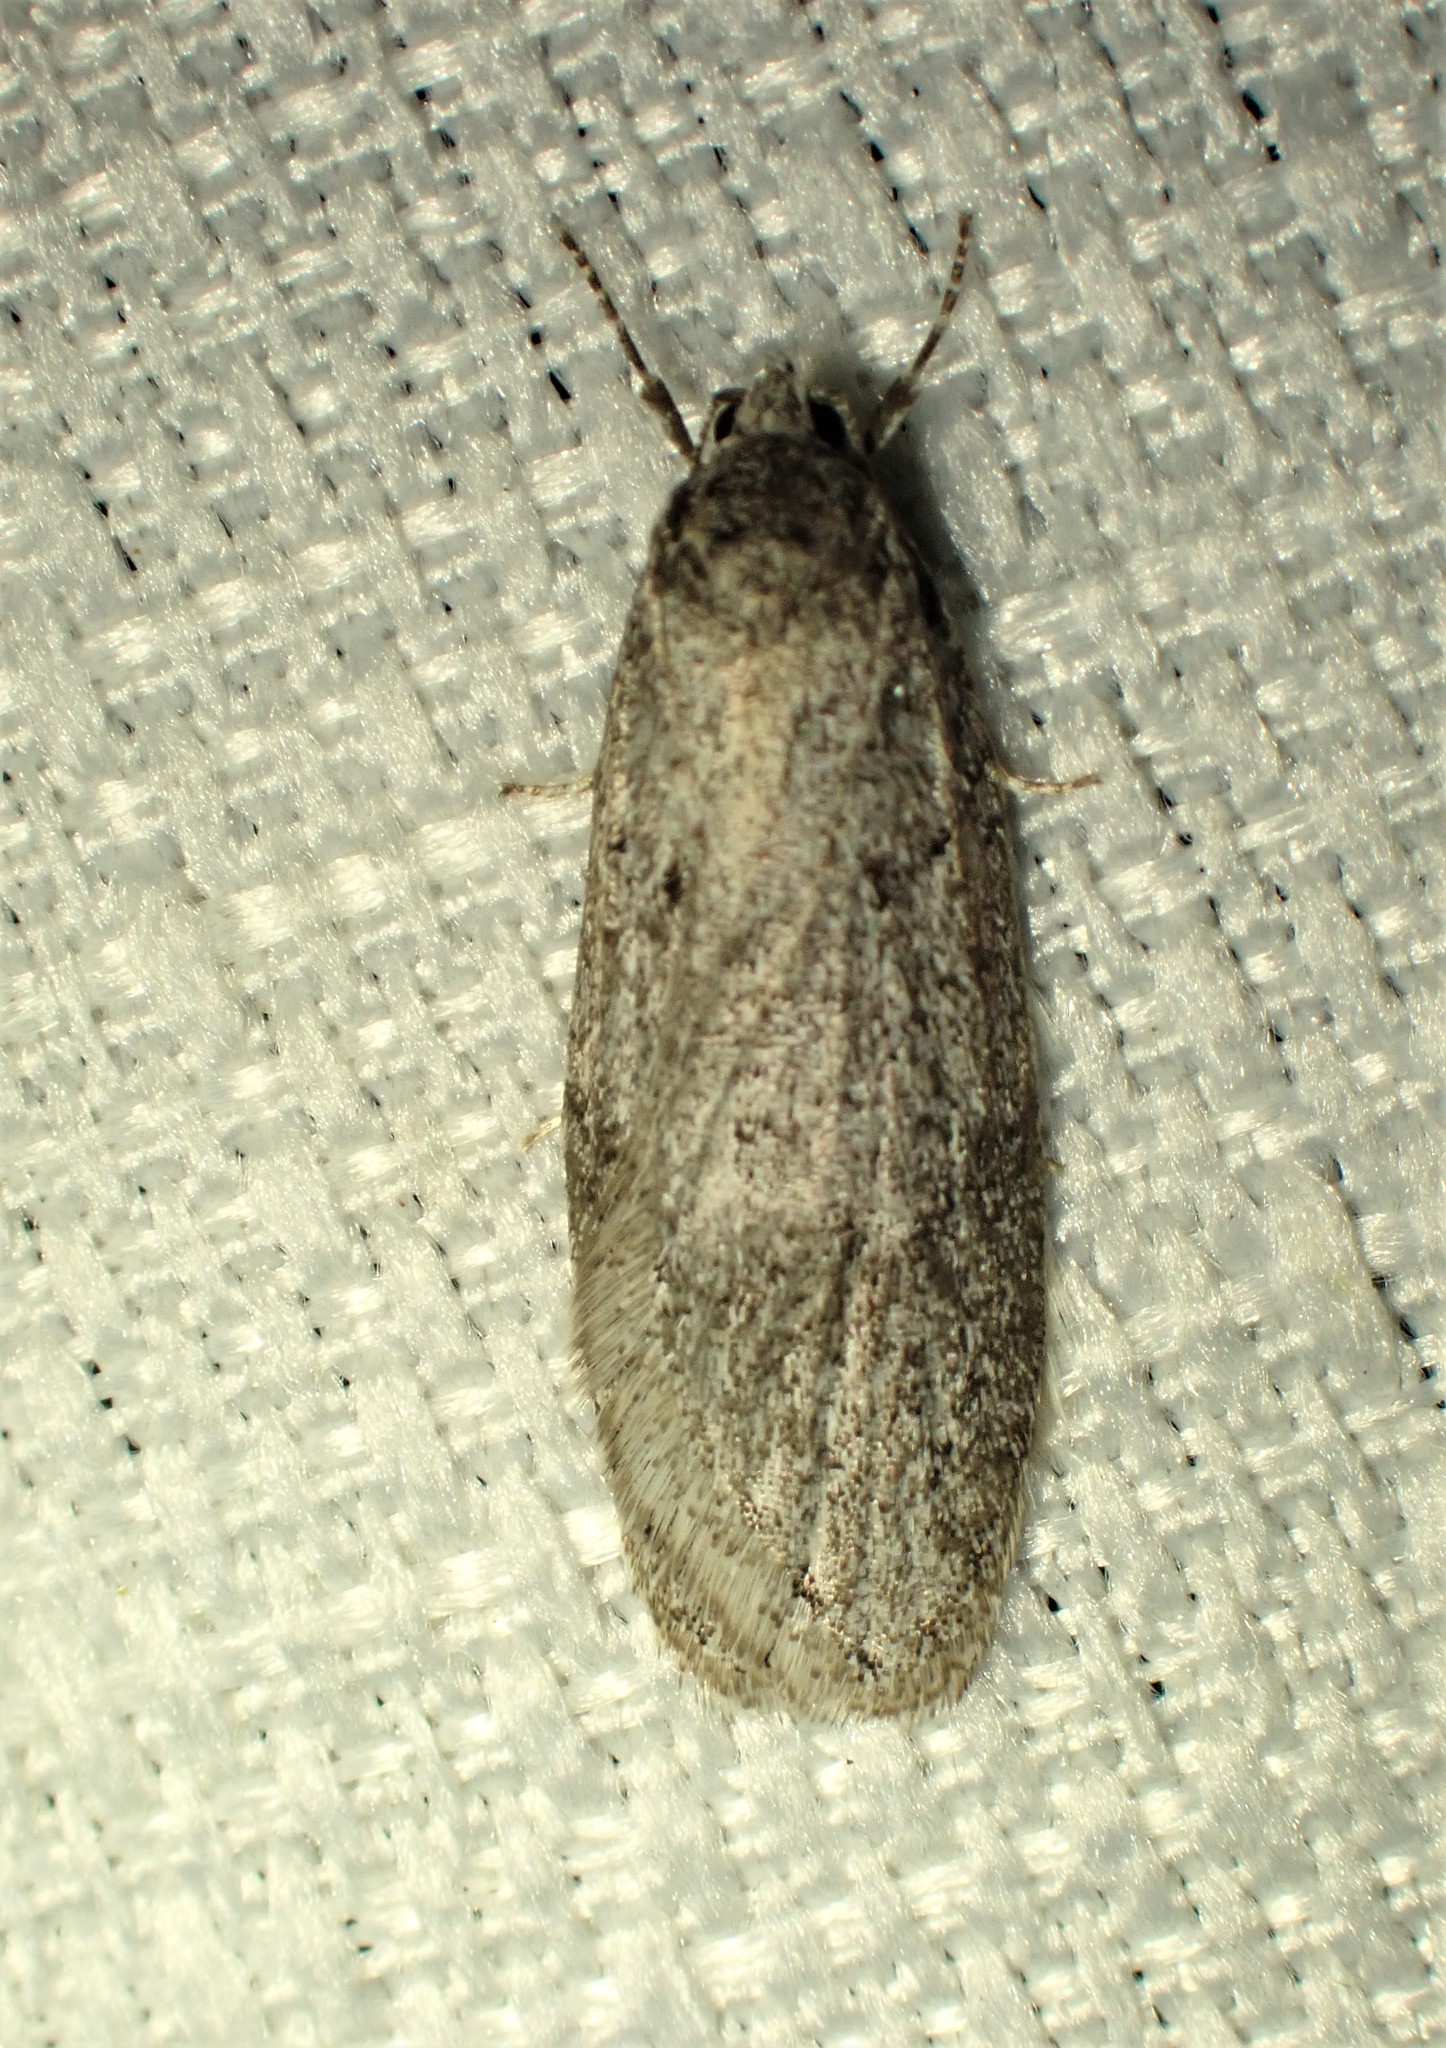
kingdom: Animalia
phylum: Arthropoda
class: Insecta
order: Lepidoptera
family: Depressariidae
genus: Semioscopis
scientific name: Semioscopis inornata
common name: Poplar micromoth
